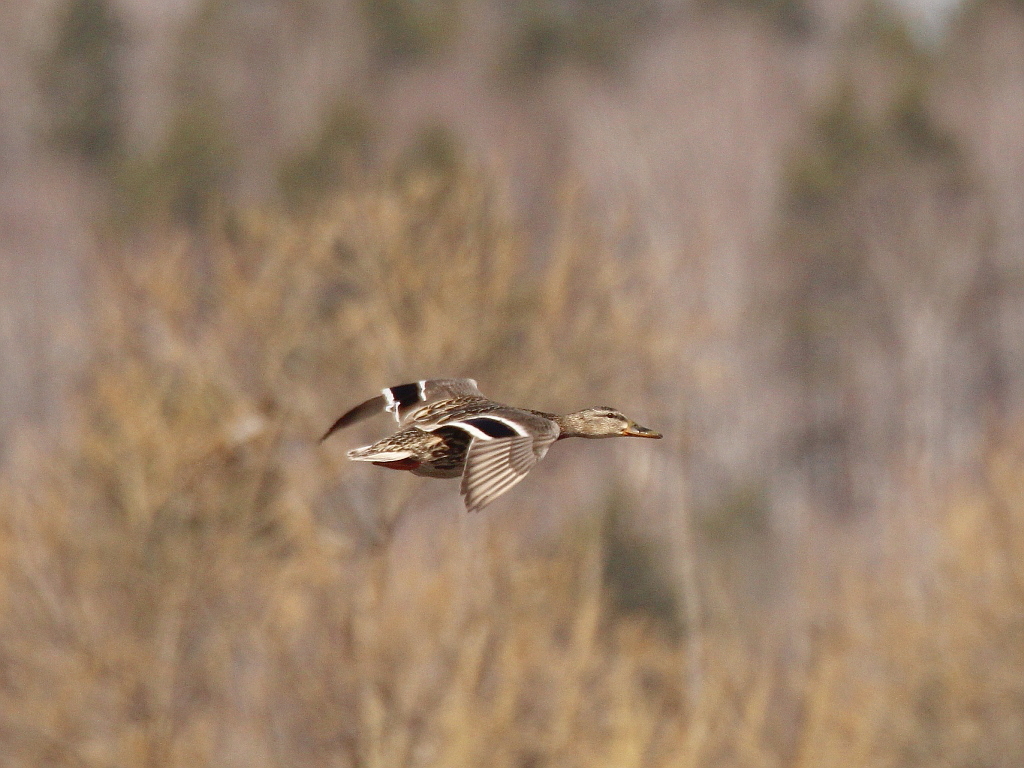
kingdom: Animalia
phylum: Chordata
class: Aves
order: Anseriformes
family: Anatidae
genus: Anas
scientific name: Anas platyrhynchos
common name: Mallard
